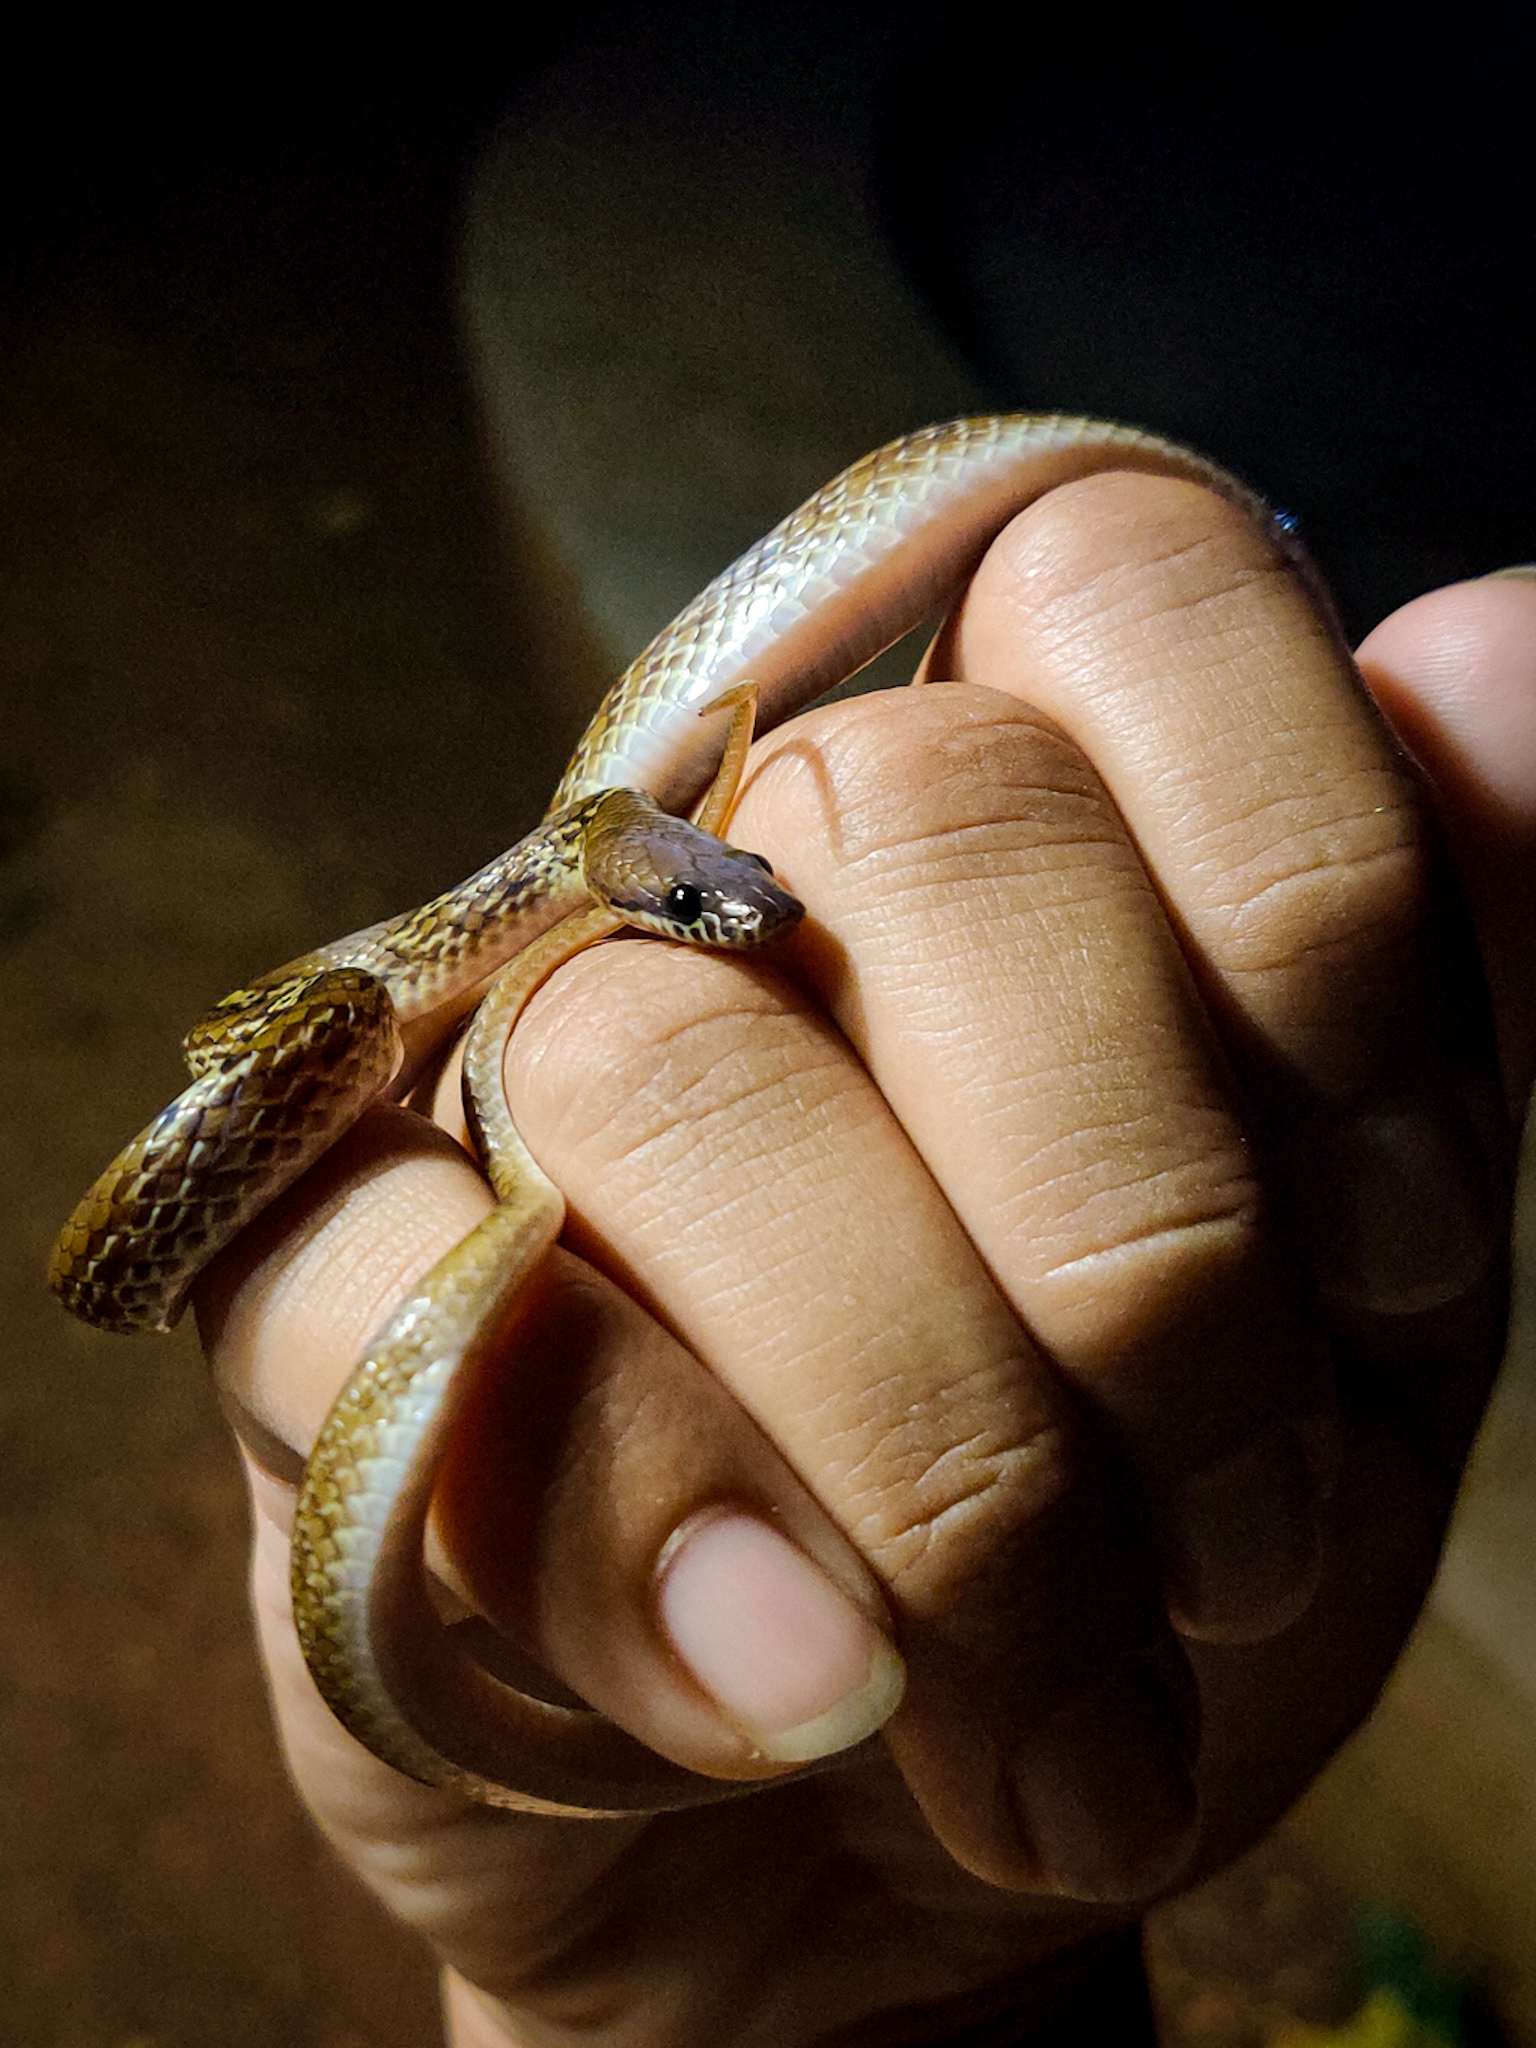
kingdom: Animalia
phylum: Chordata
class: Squamata
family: Colubridae
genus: Lycodon
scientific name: Lycodon fasciolatus
